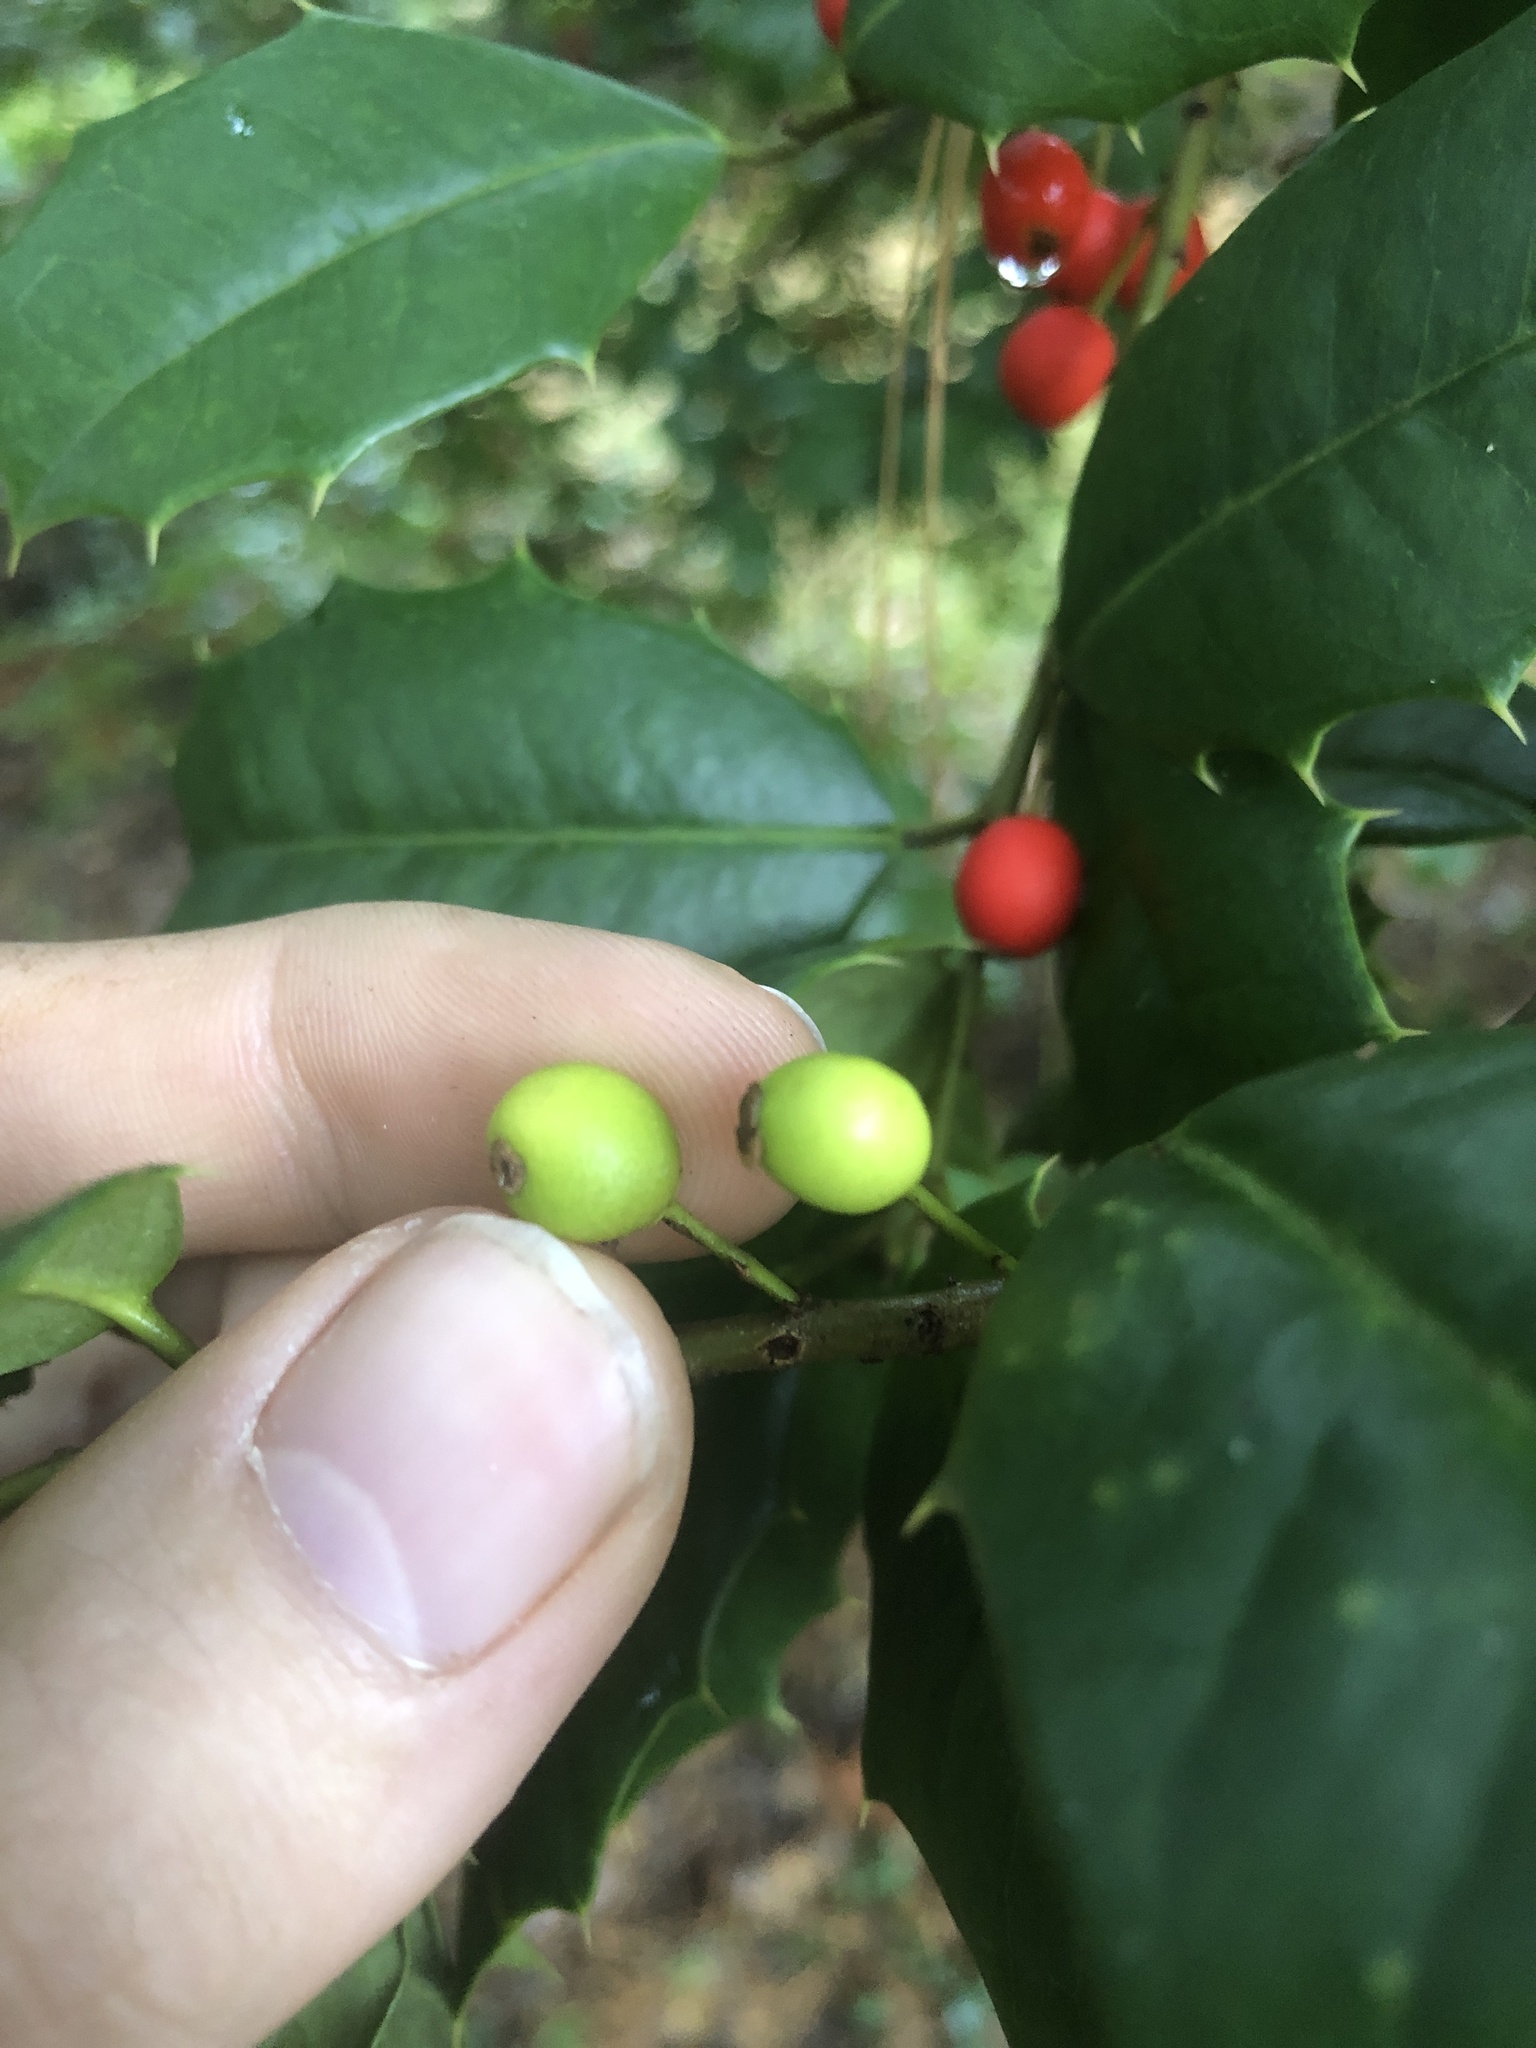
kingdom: Animalia
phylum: Arthropoda
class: Insecta
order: Diptera
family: Cecidomyiidae
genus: Asphondylia
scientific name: Asphondylia ilicicola
